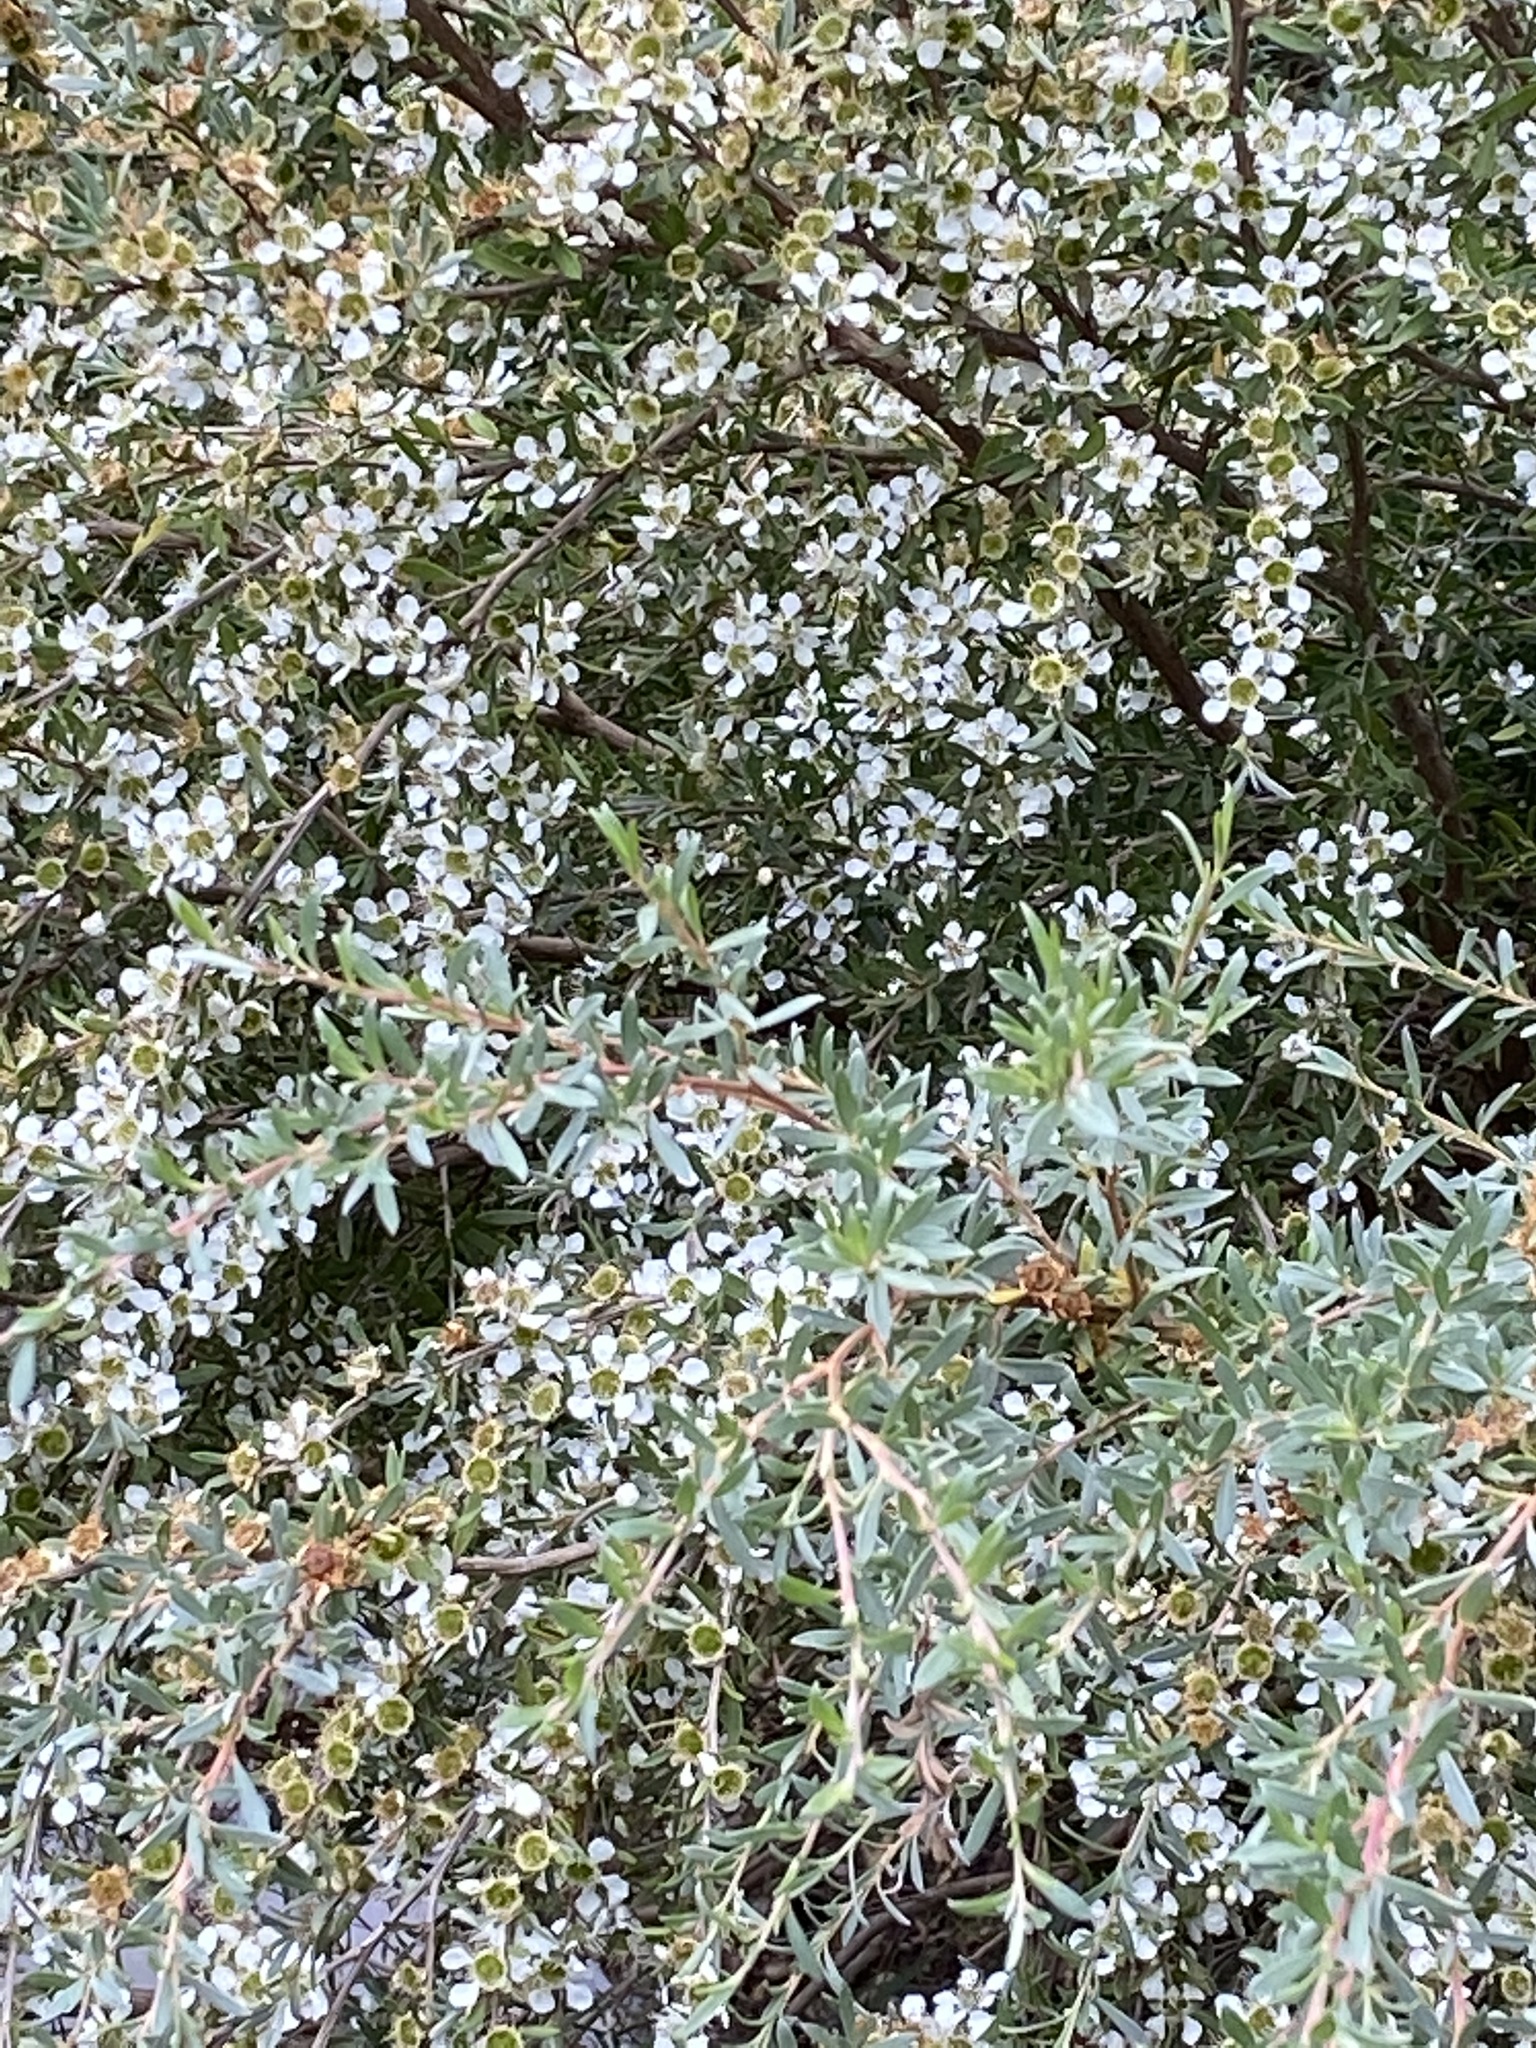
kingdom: Plantae
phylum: Tracheophyta
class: Magnoliopsida
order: Myrtales
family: Myrtaceae
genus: Leptospermum
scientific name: Leptospermum lanigerum
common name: Woolly tea-tree
